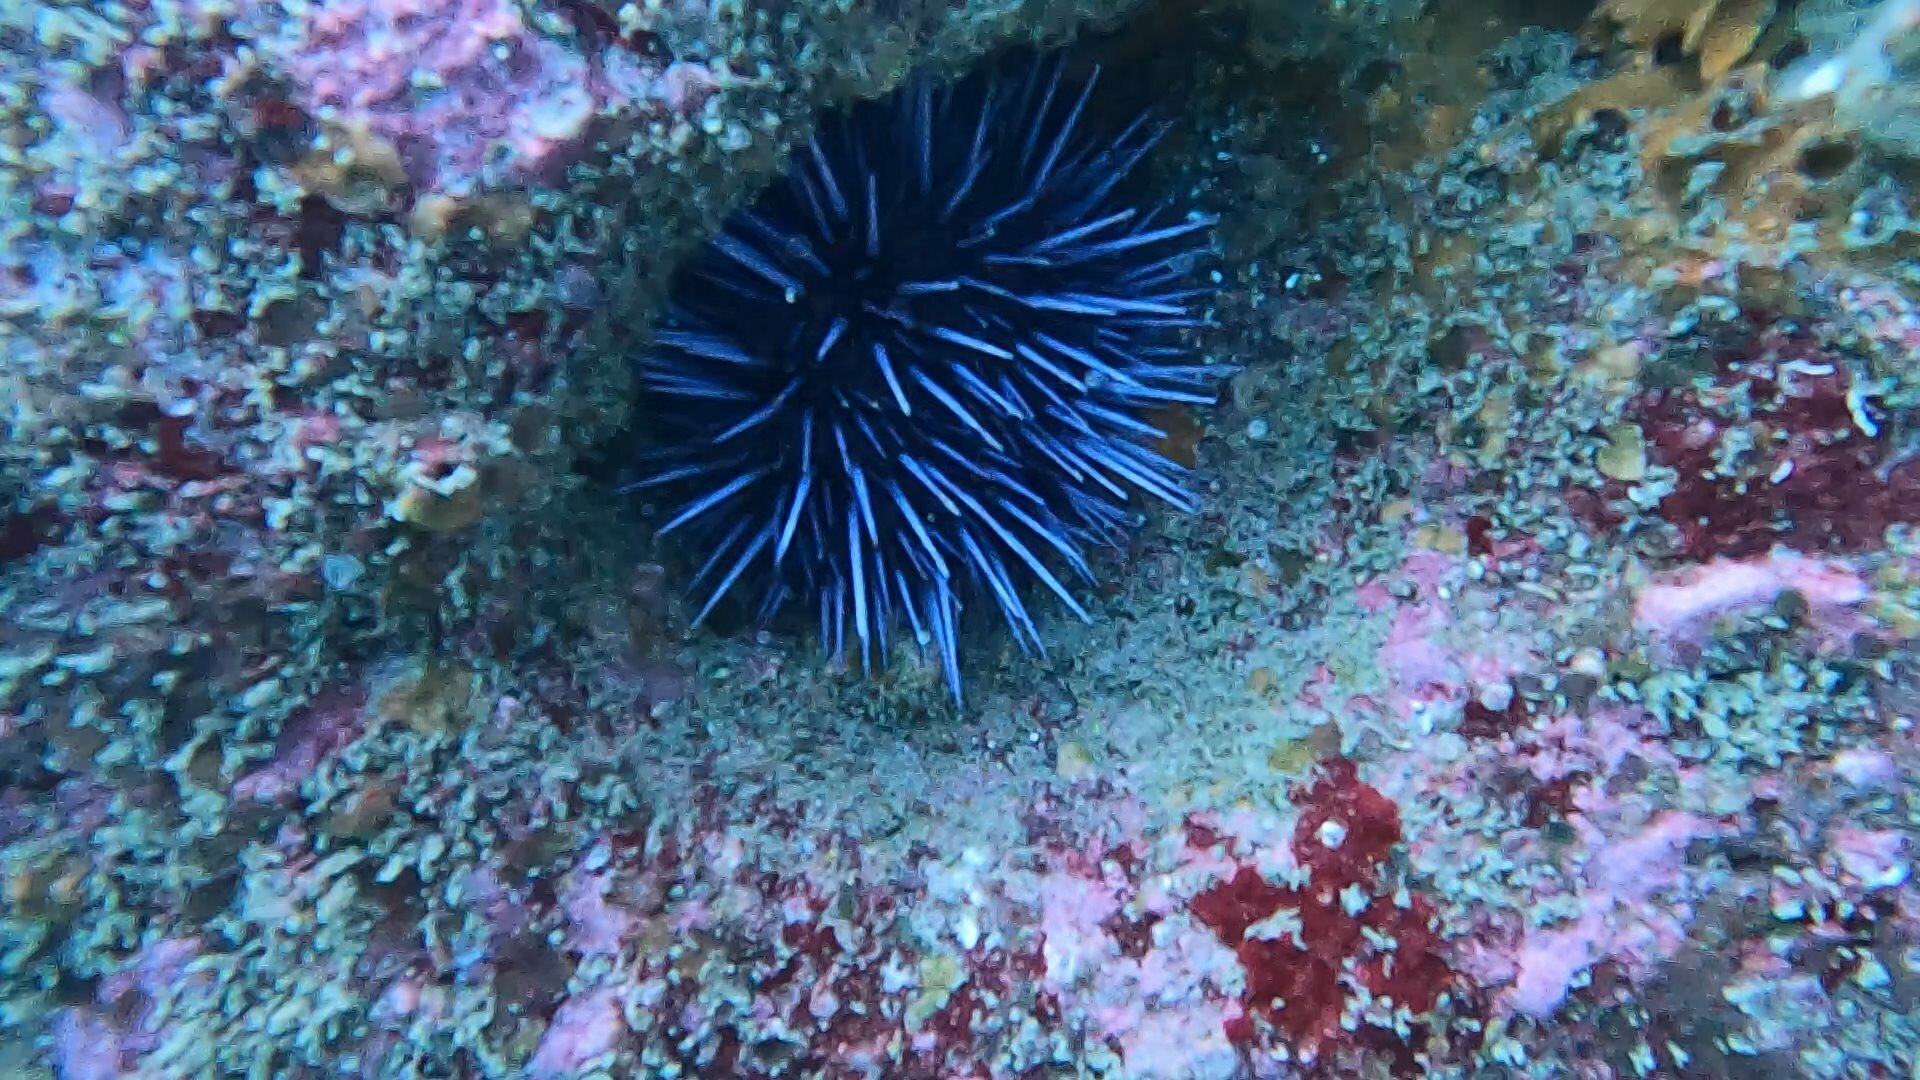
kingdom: Animalia
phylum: Echinodermata
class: Echinoidea
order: Camarodonta
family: Strongylocentrotidae
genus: Strongylocentrotus
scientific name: Strongylocentrotus purpuratus
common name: Purple sea urchin
